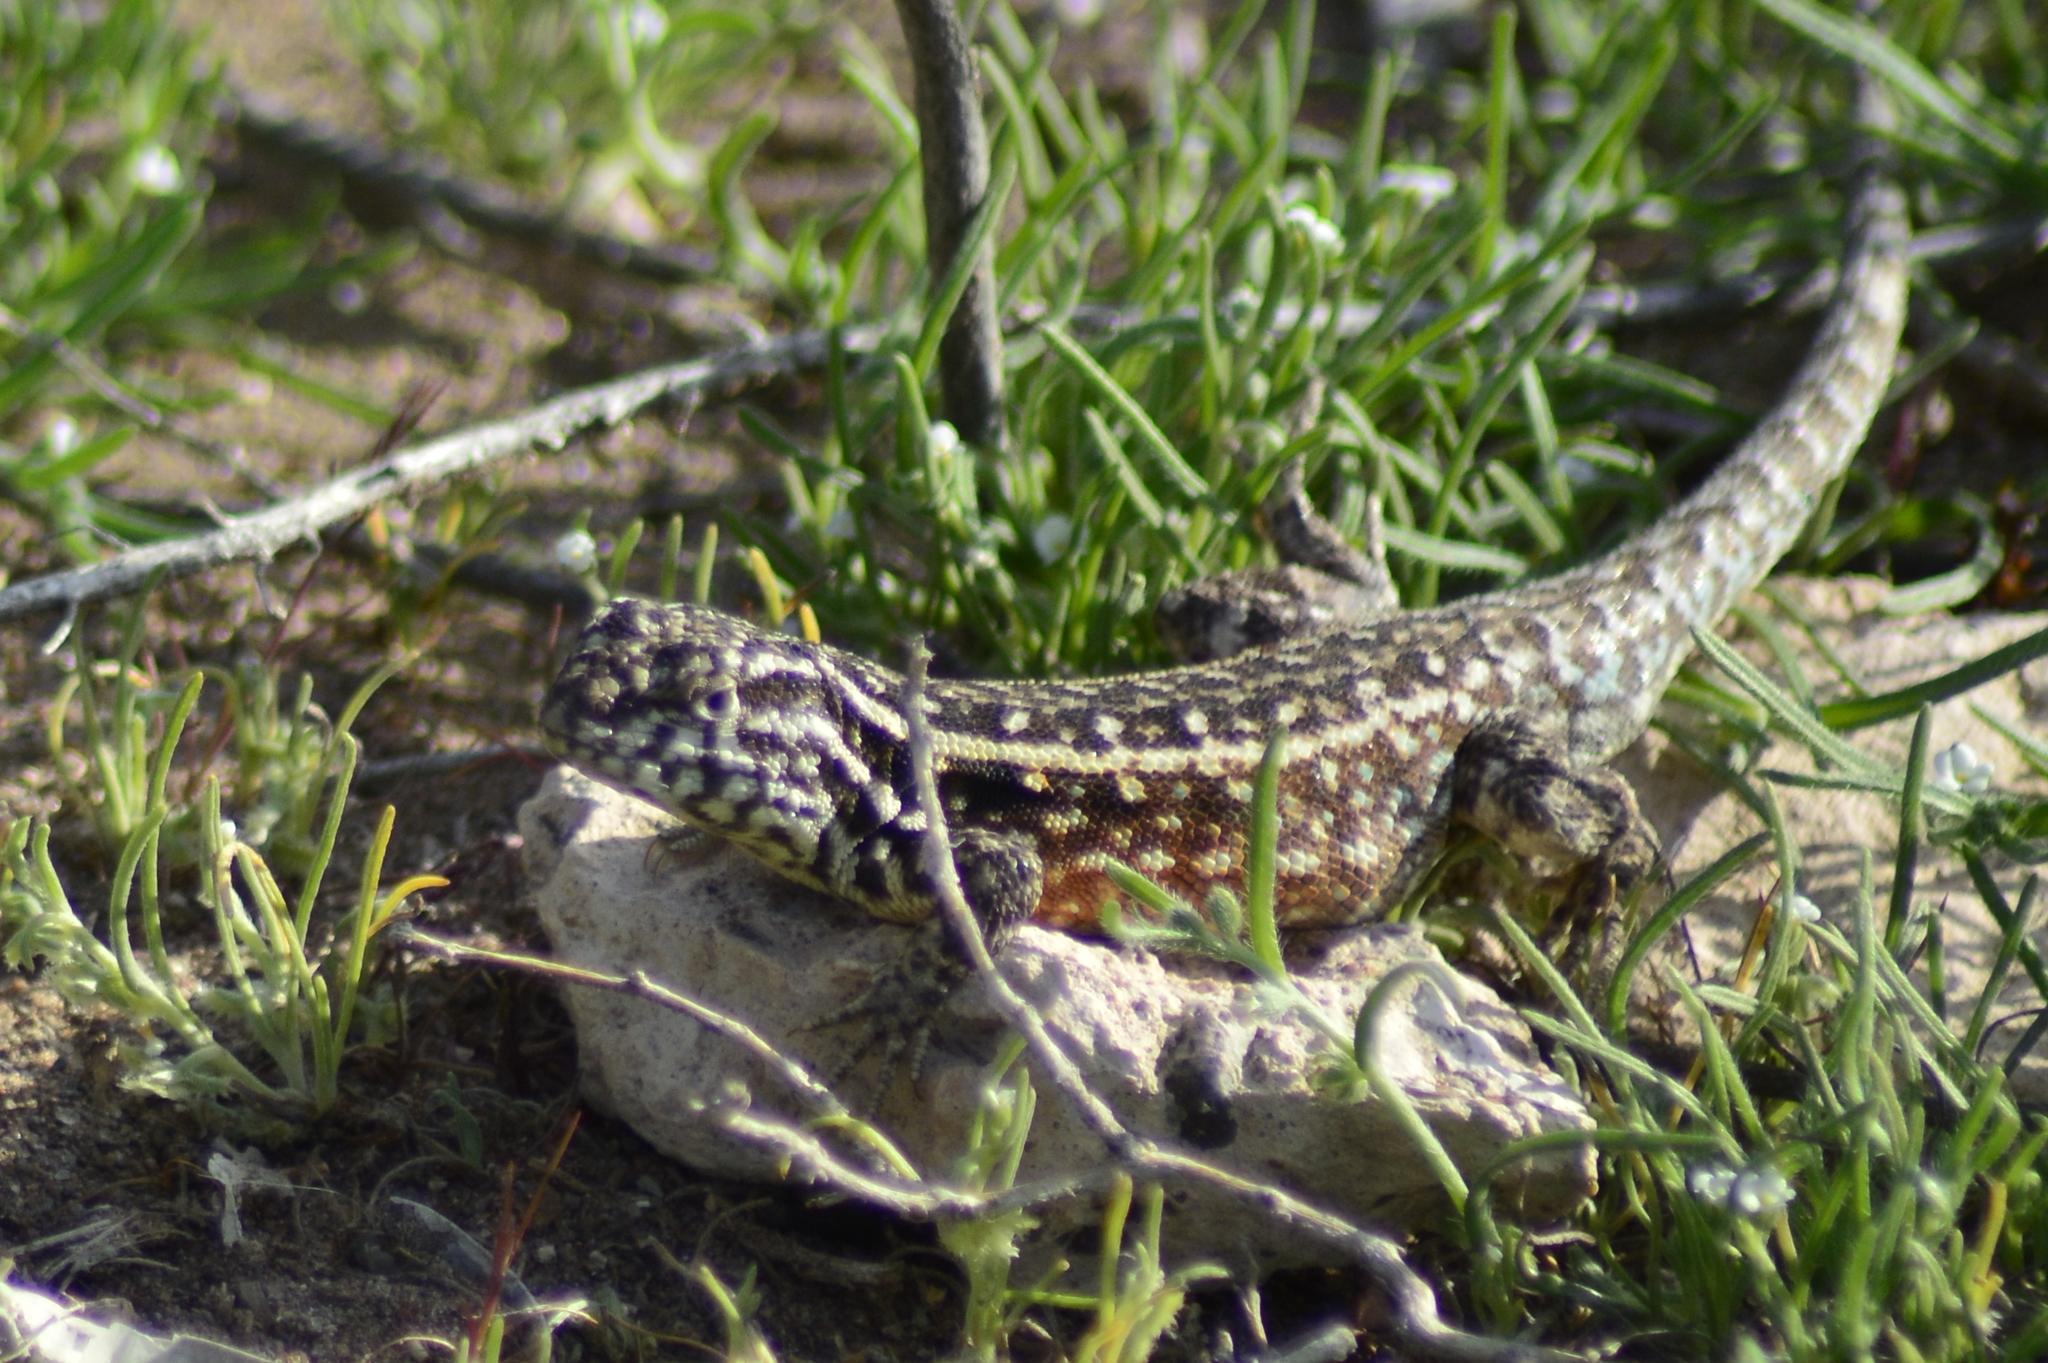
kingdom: Animalia
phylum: Chordata
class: Squamata
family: Liolaemidae
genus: Liolaemus
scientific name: Liolaemus darwinii
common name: Darwin's tree iguana
